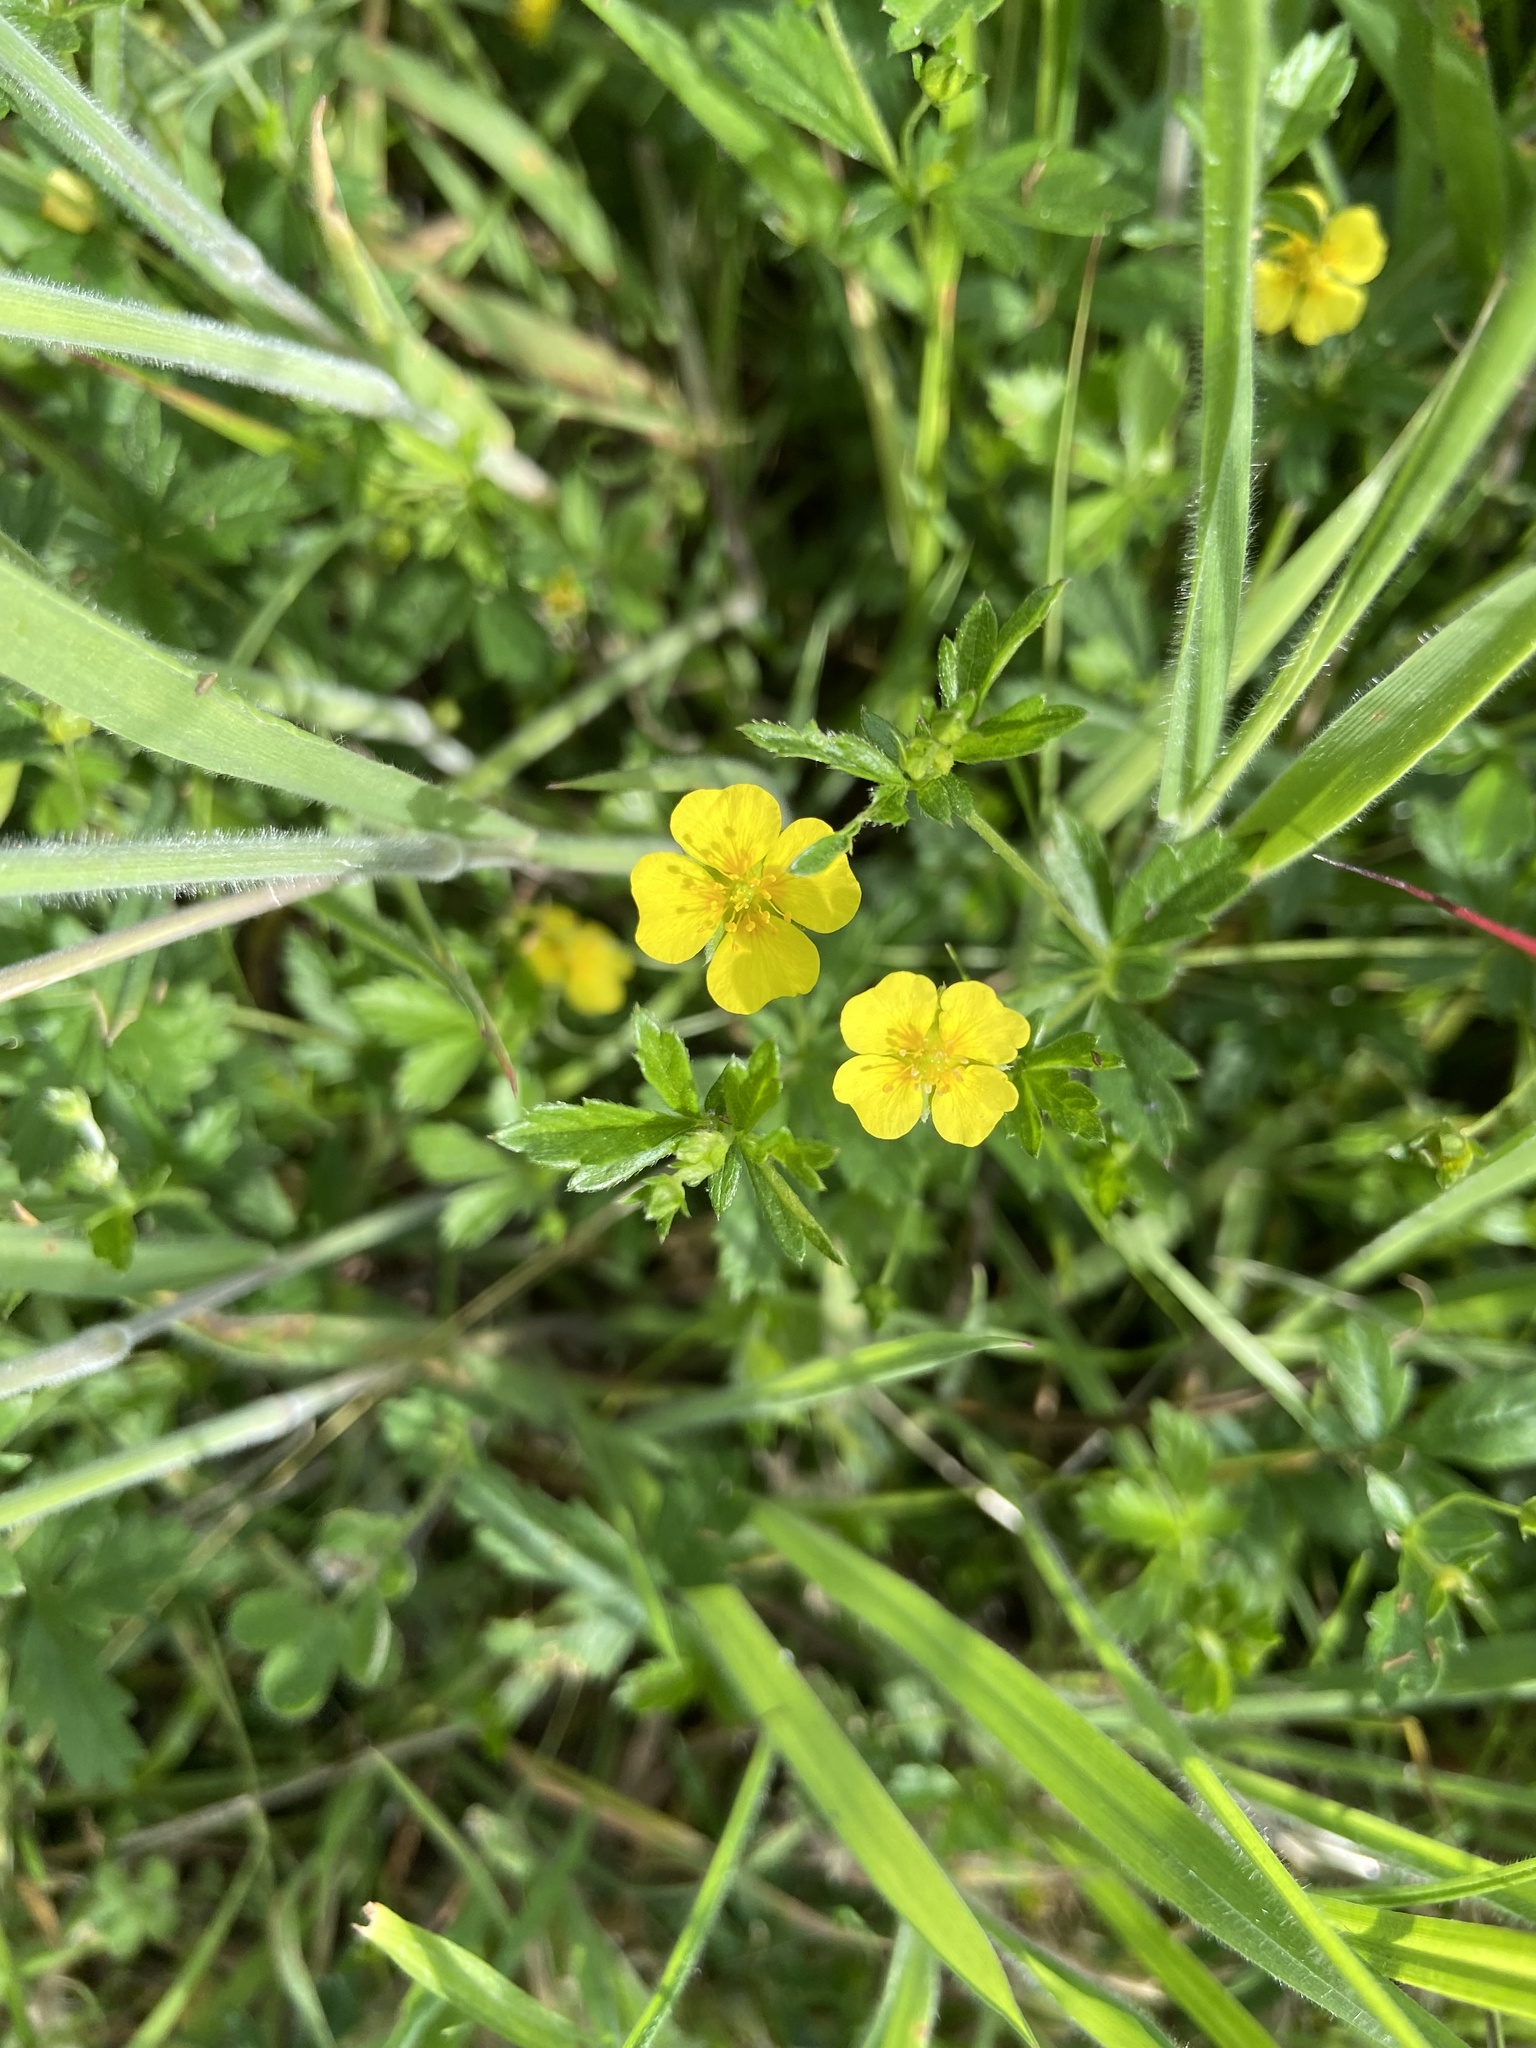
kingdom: Plantae
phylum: Tracheophyta
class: Magnoliopsida
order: Rosales
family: Rosaceae
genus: Potentilla
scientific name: Potentilla erecta
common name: Tormentil
